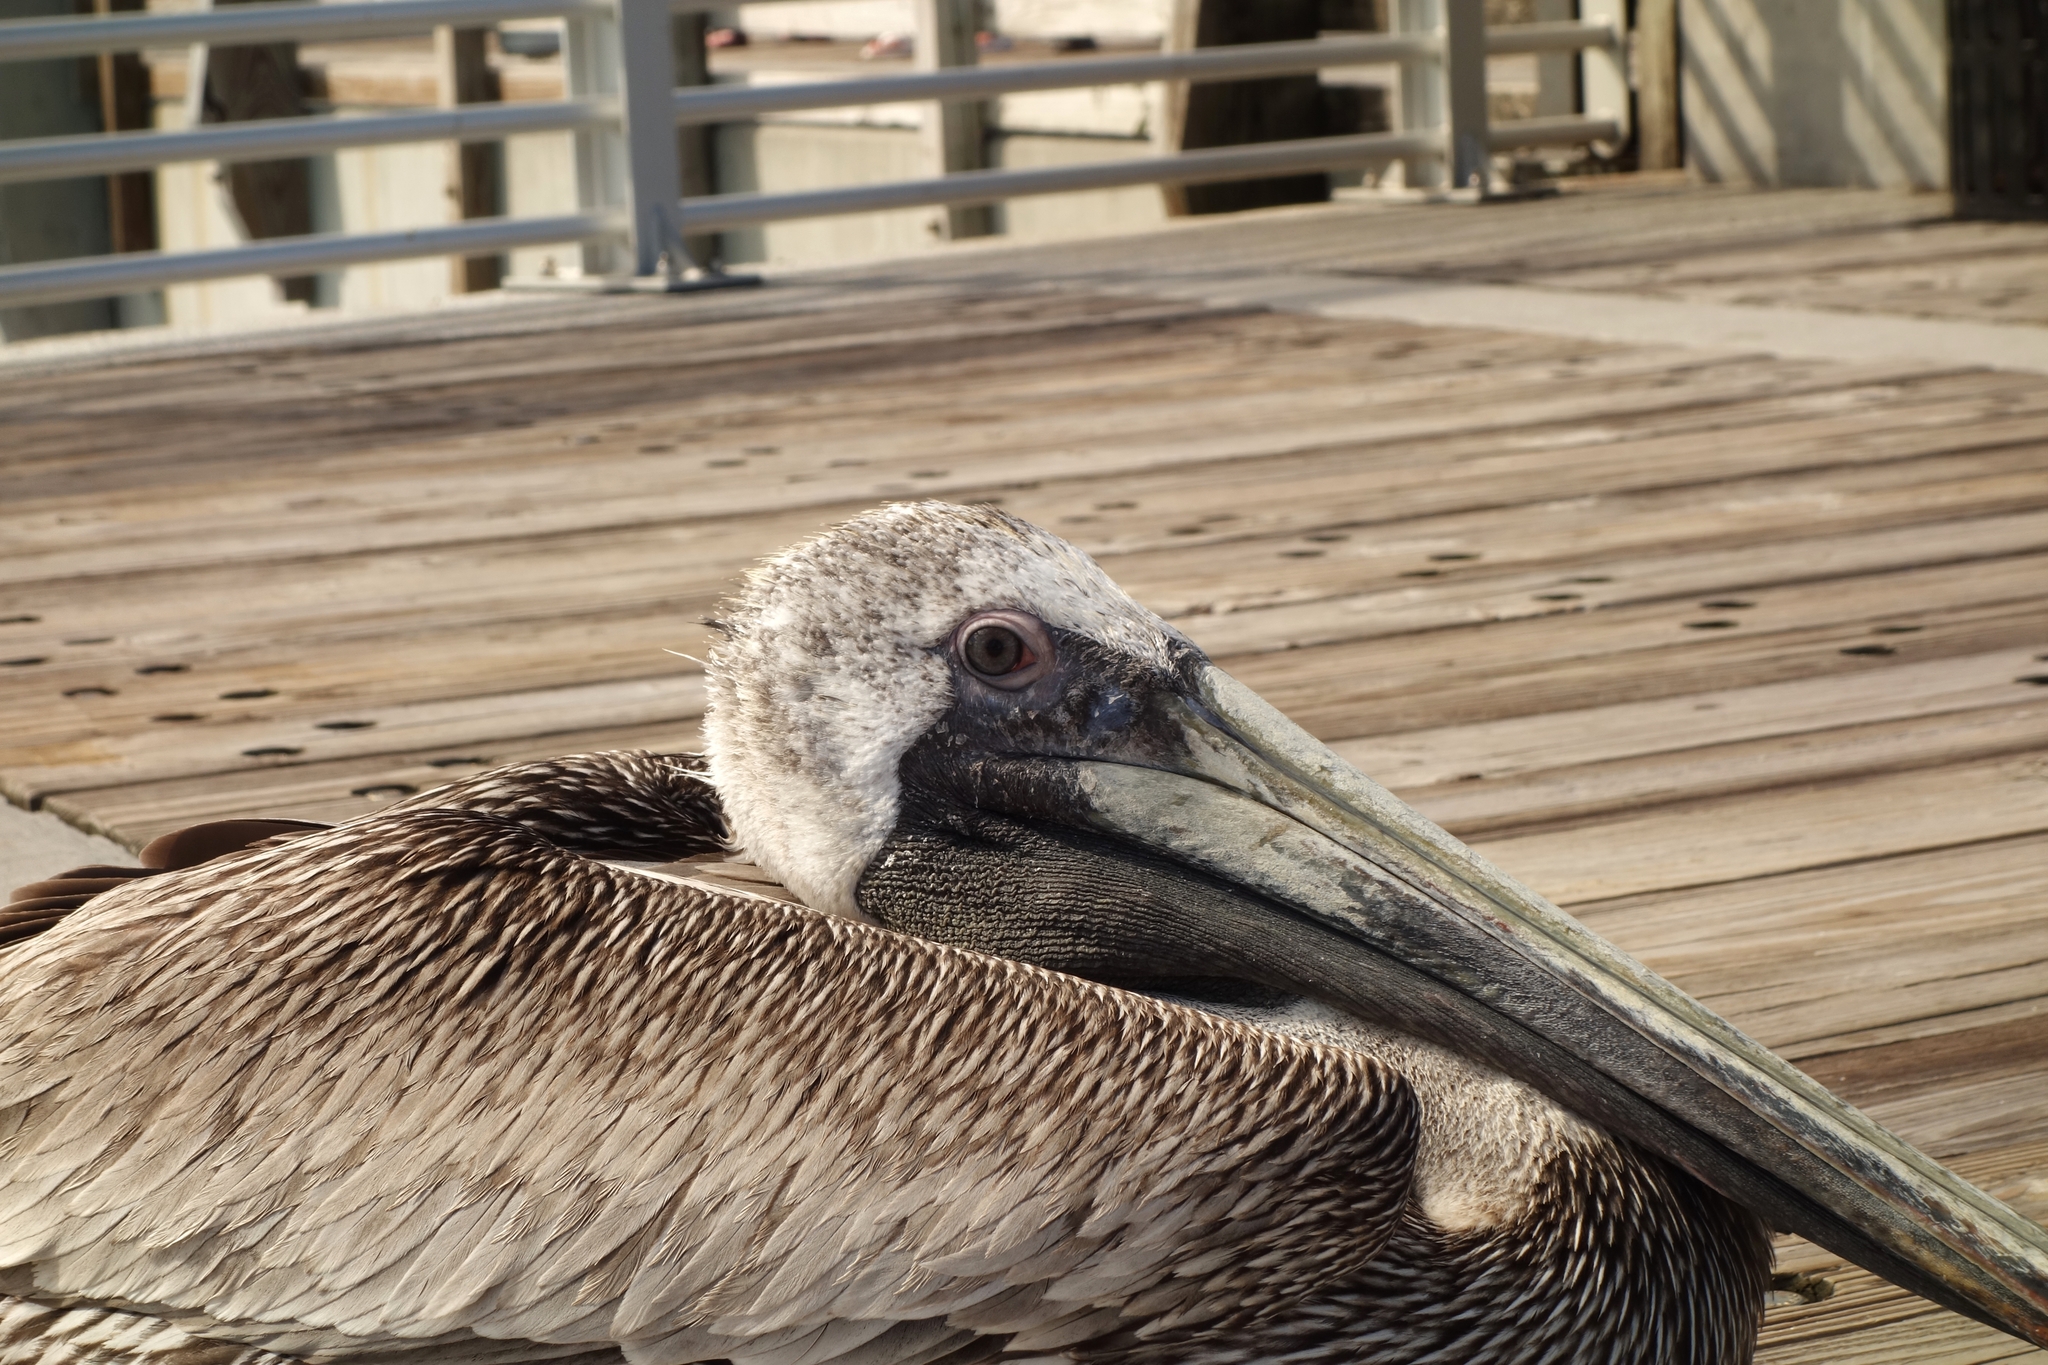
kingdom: Animalia
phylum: Chordata
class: Aves
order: Pelecaniformes
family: Pelecanidae
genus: Pelecanus
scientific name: Pelecanus occidentalis
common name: Brown pelican
